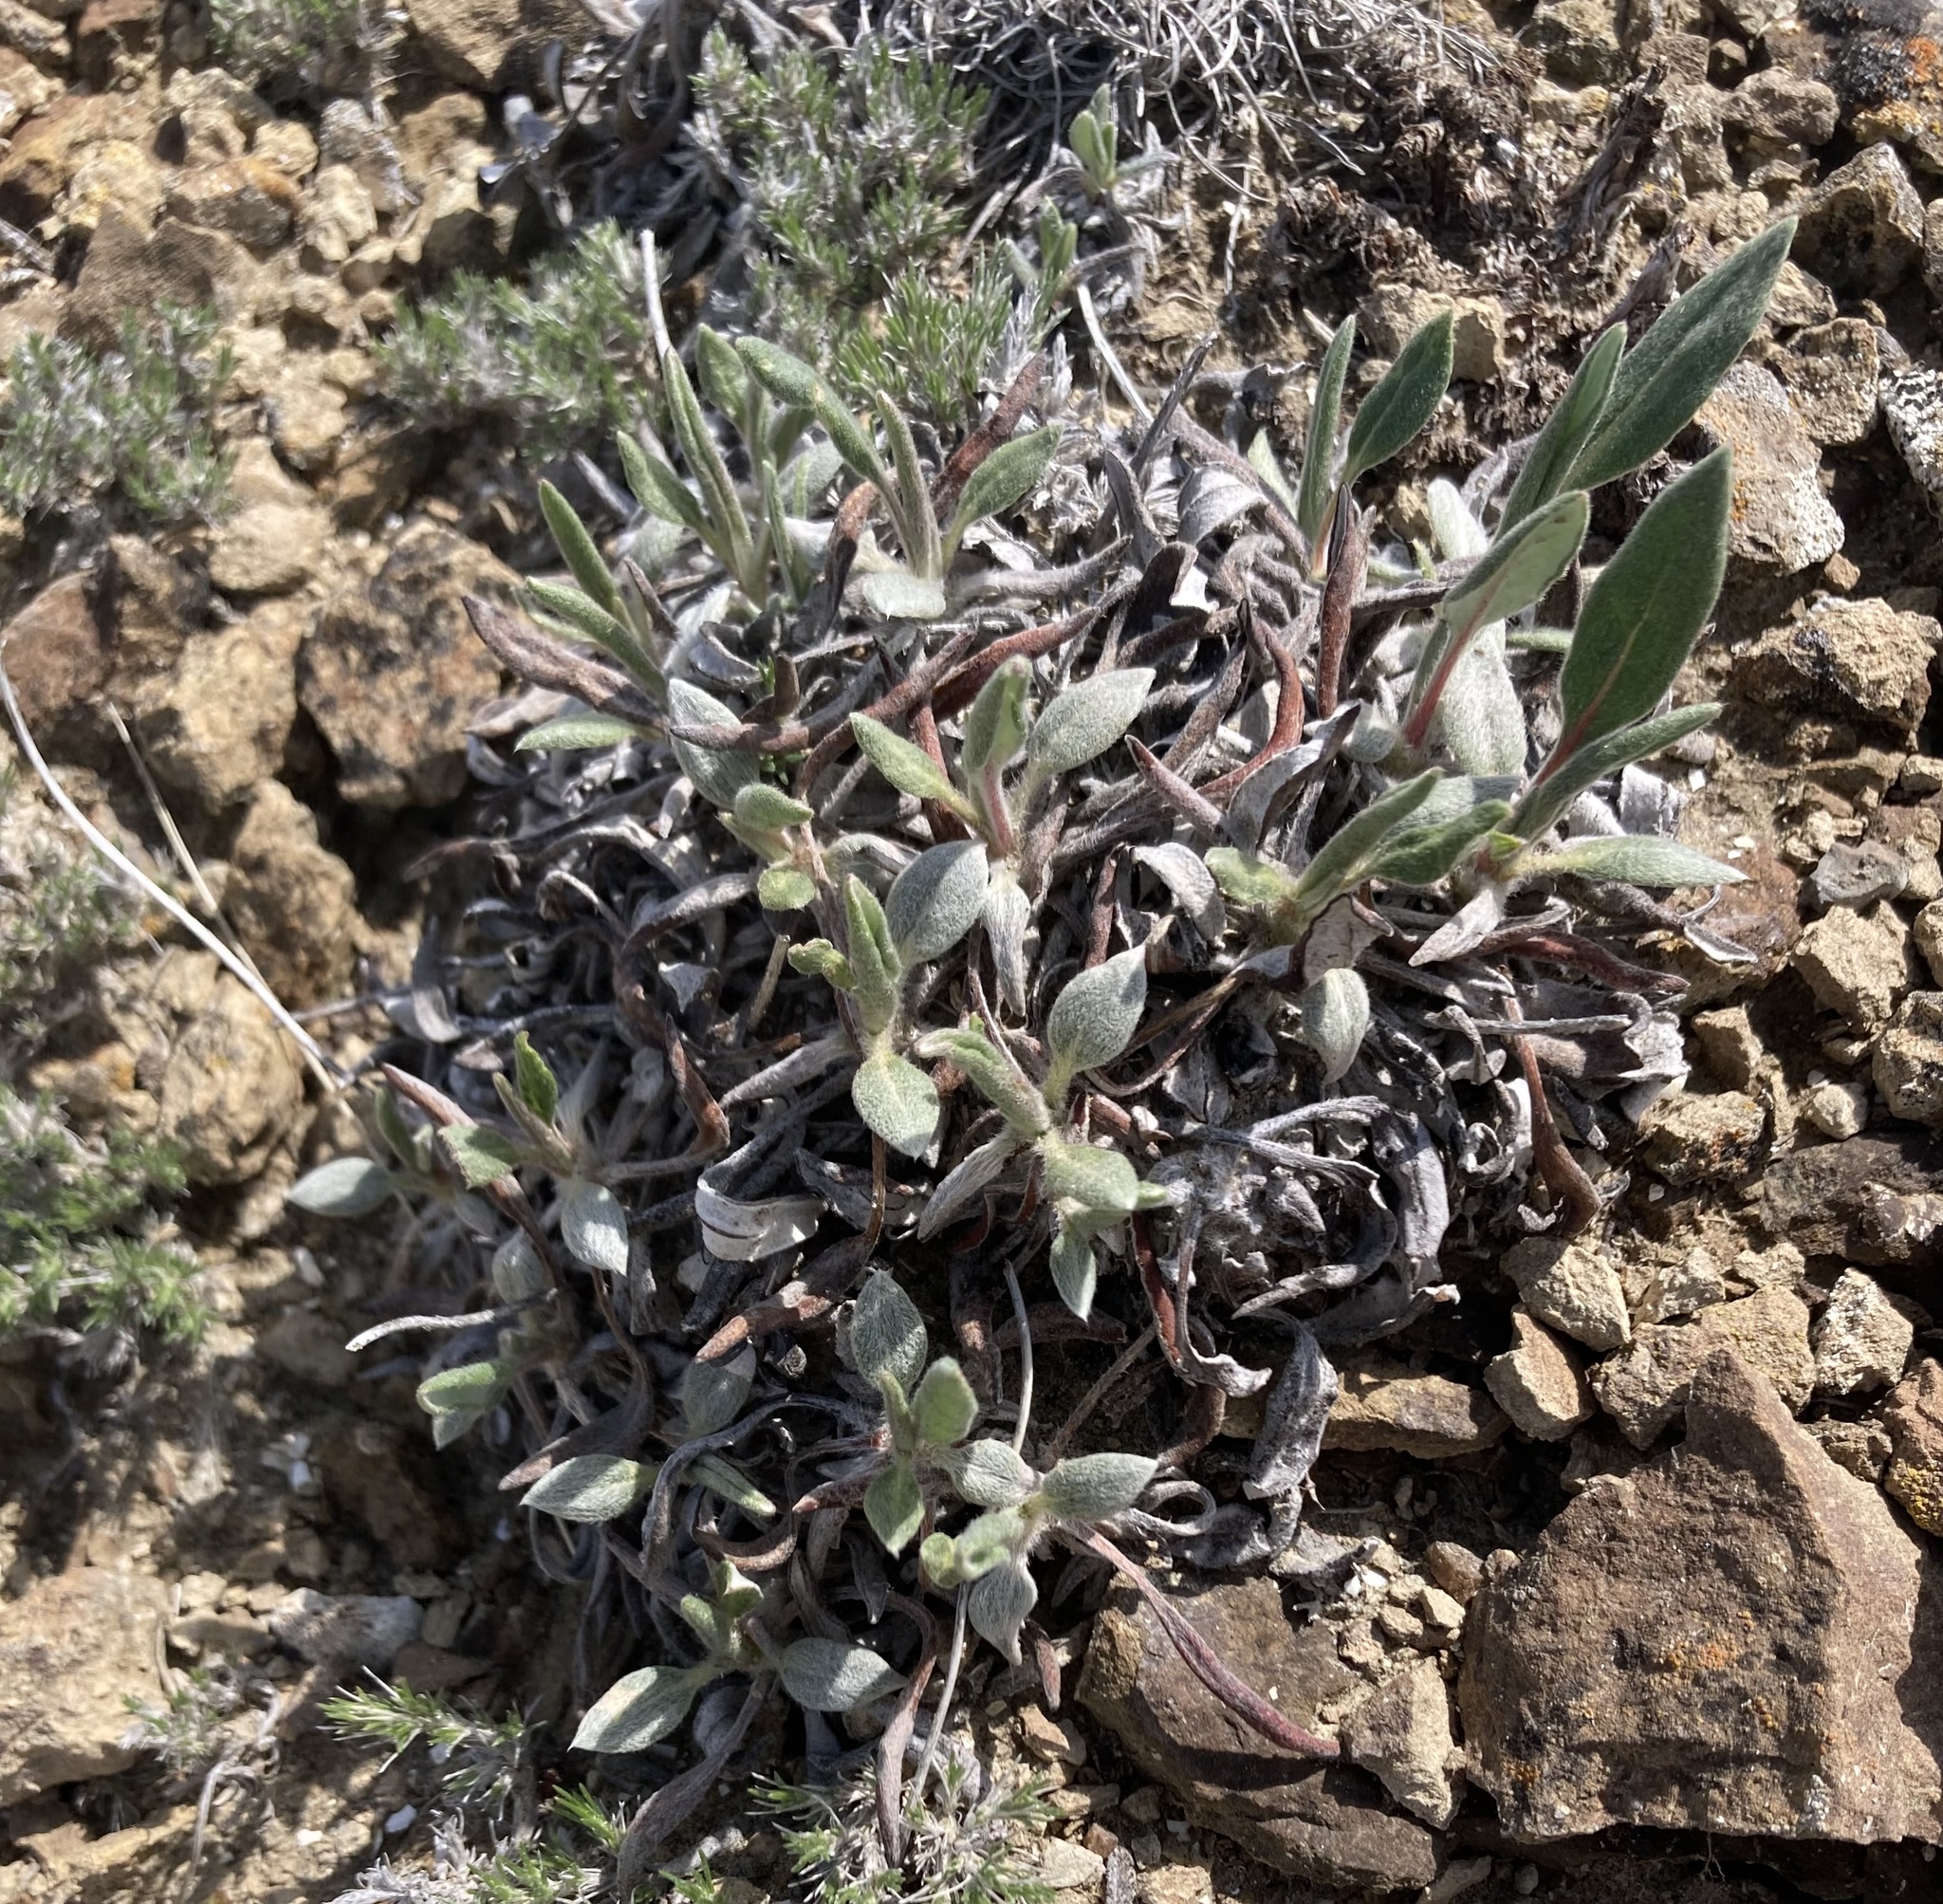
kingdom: Plantae
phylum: Tracheophyta
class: Magnoliopsida
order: Caryophyllales
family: Polygonaceae
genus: Eriogonum
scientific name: Eriogonum flavum
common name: Alpine golden wild buckwheat
